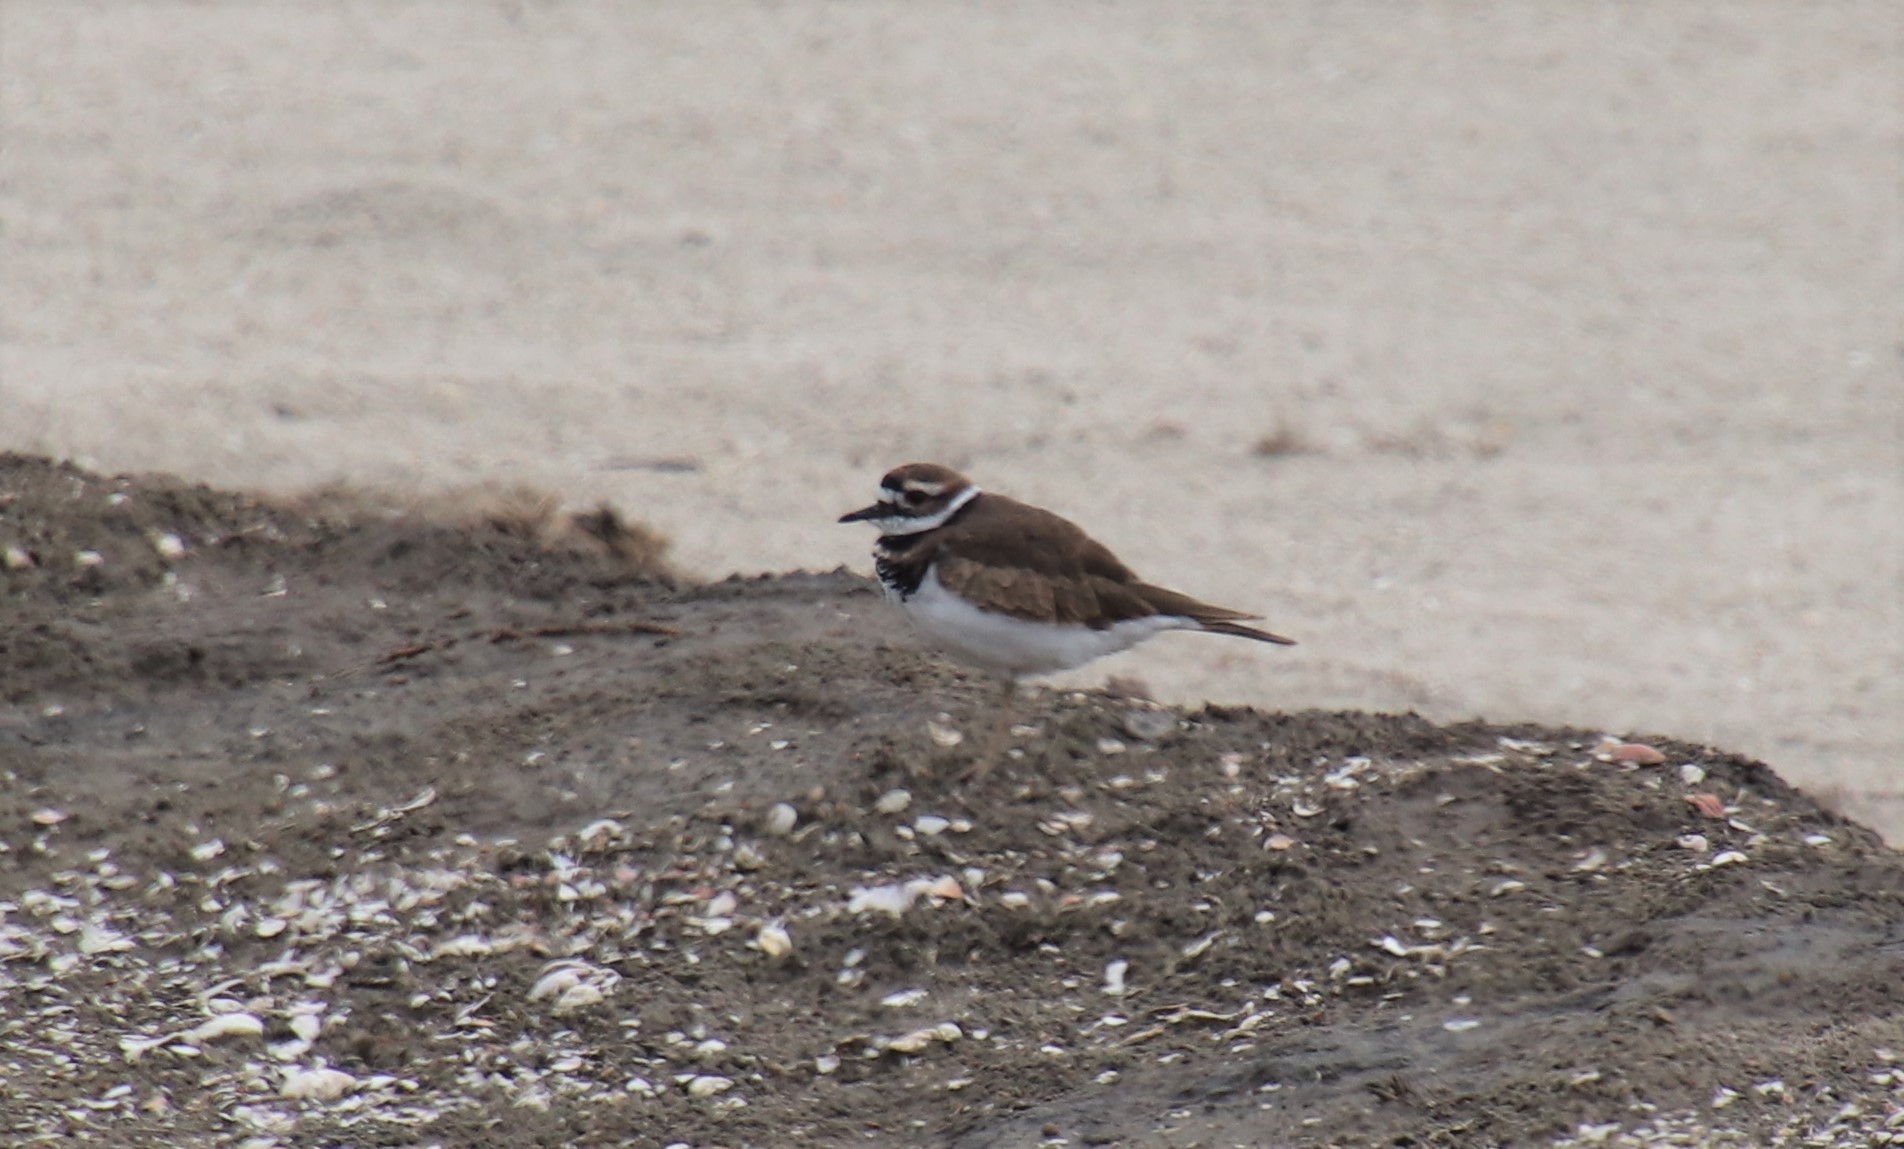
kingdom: Animalia
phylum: Chordata
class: Aves
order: Charadriiformes
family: Charadriidae
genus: Charadrius
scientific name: Charadrius vociferus
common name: Killdeer
